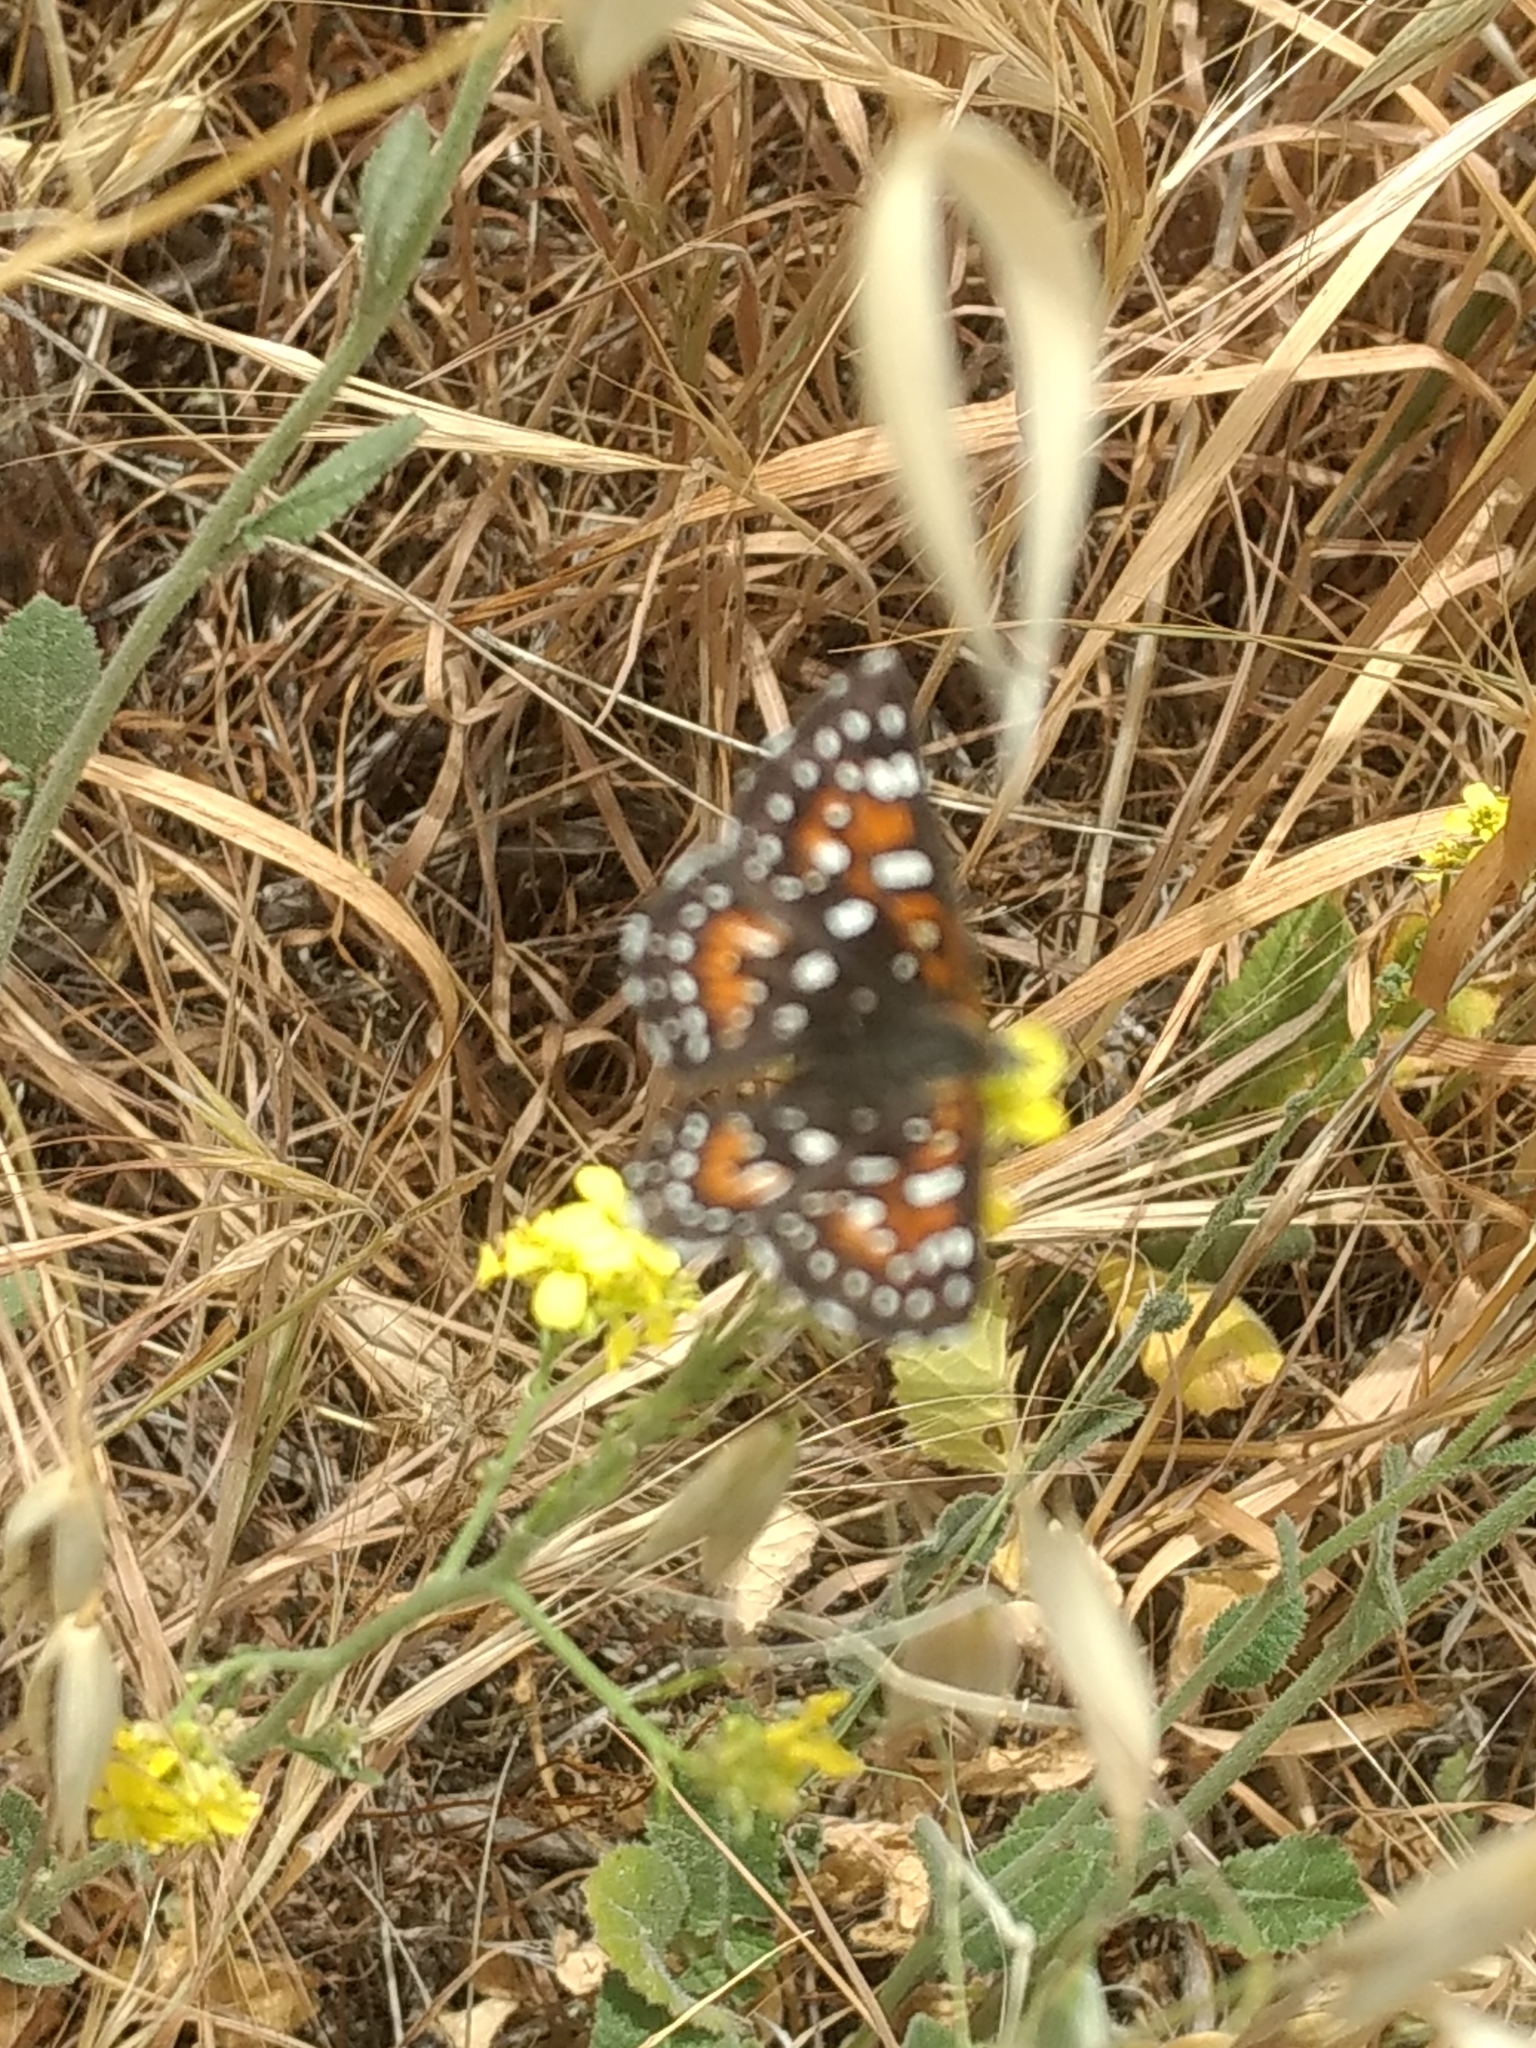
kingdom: Animalia
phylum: Arthropoda
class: Insecta
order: Lepidoptera
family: Riodinidae
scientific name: Riodinidae
